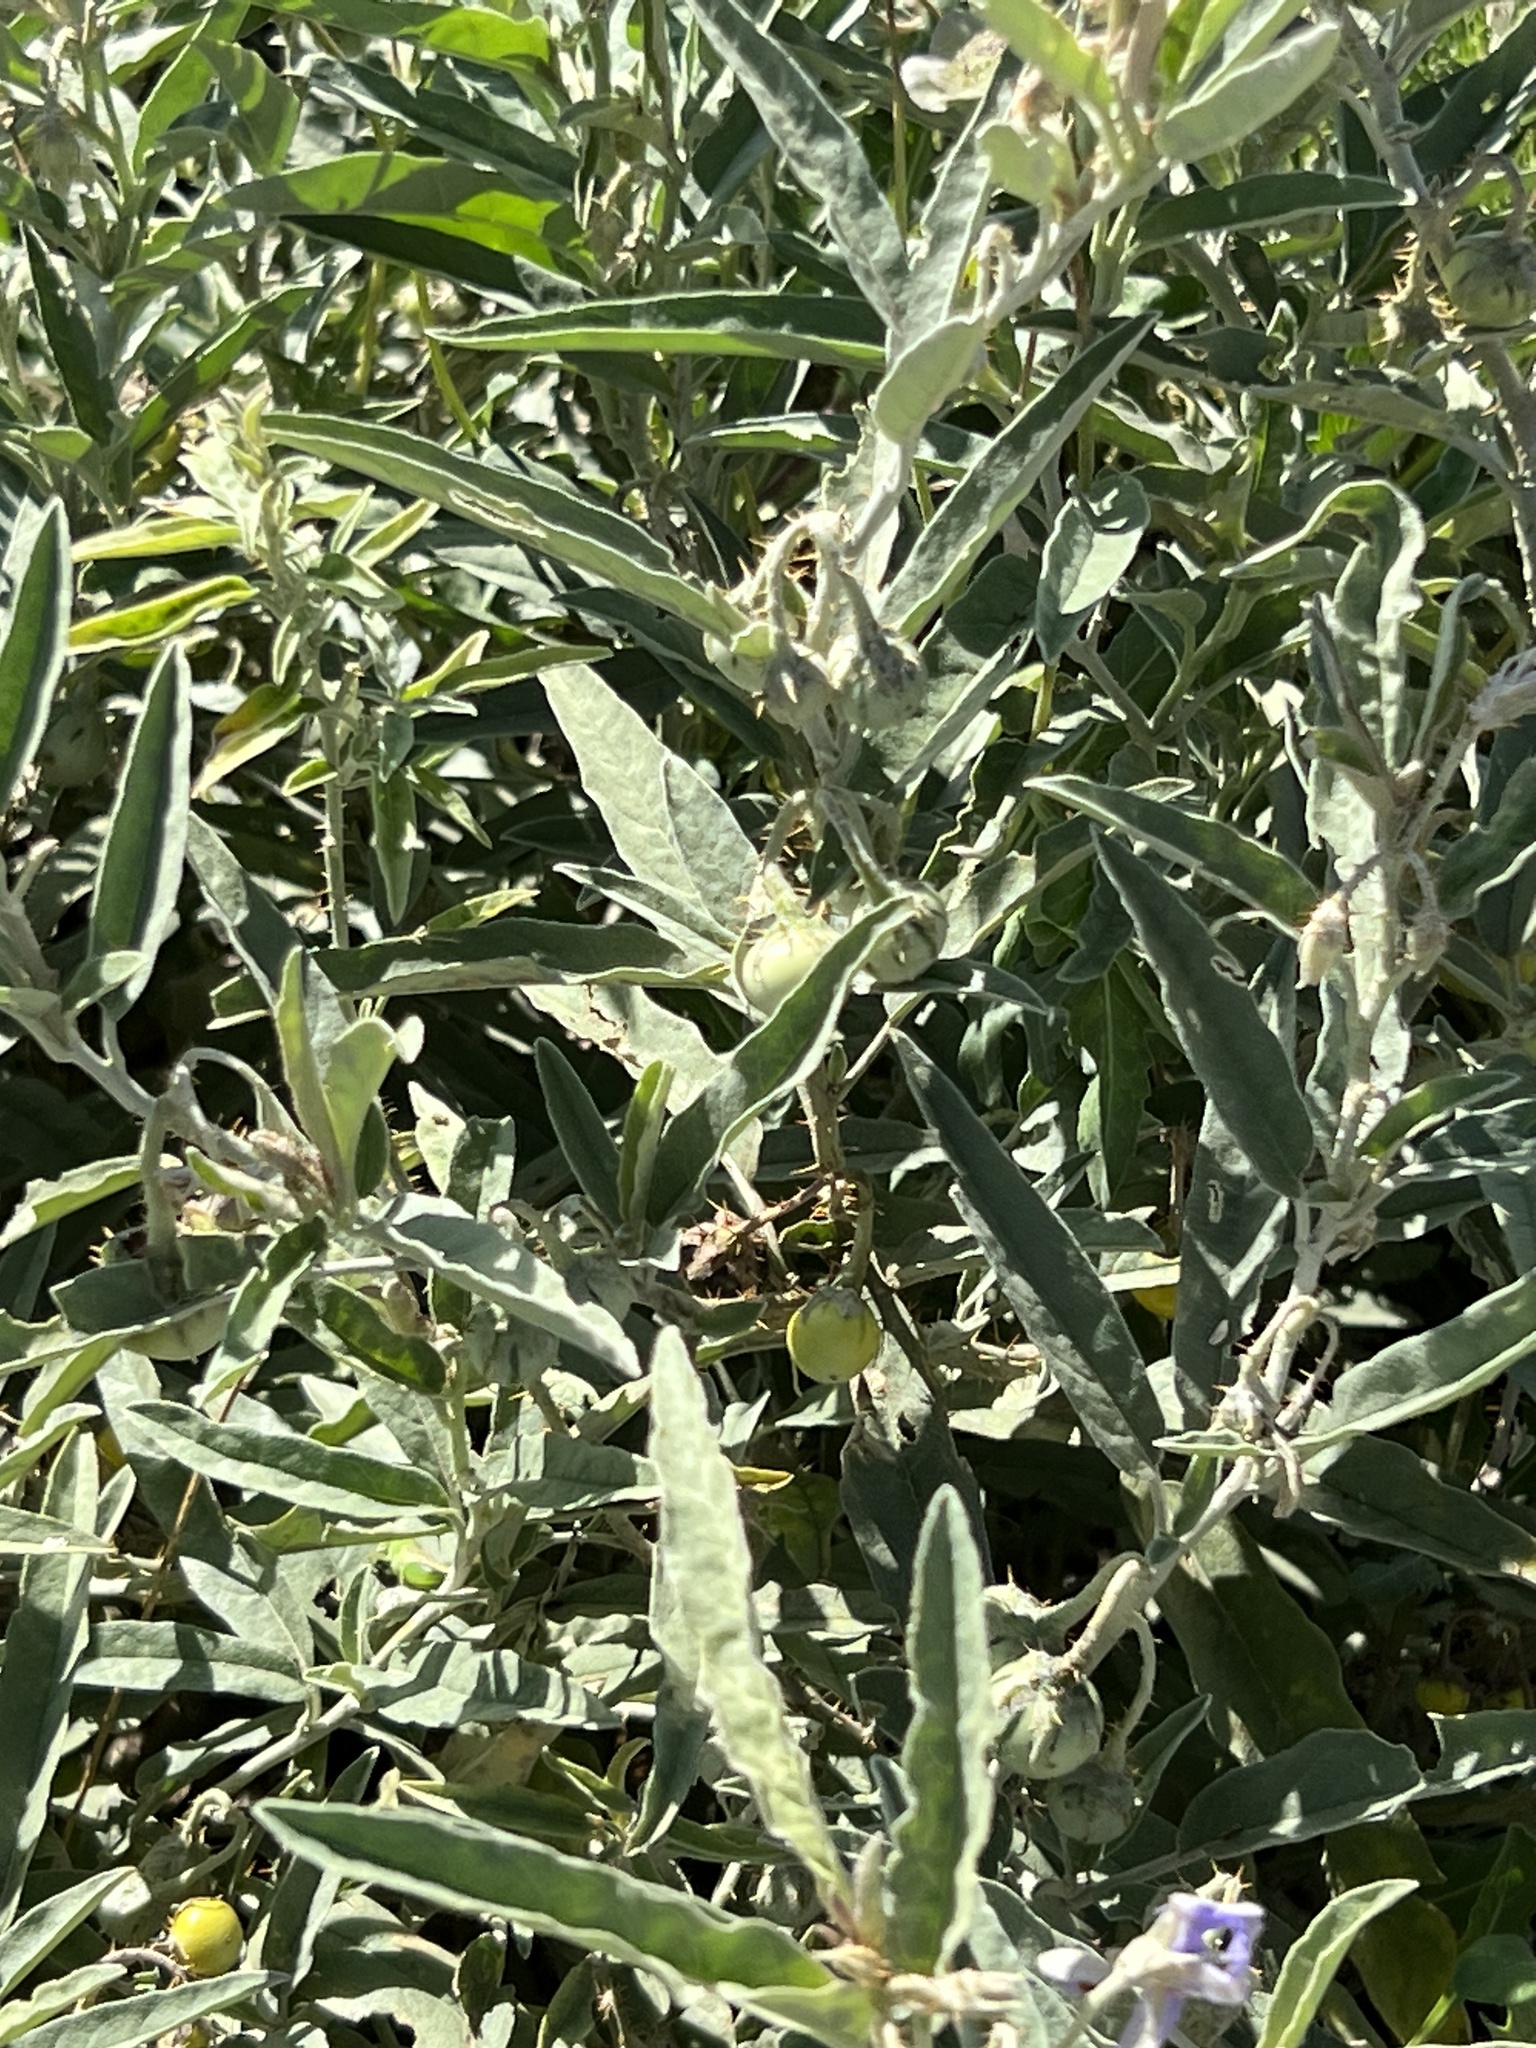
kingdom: Plantae
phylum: Tracheophyta
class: Magnoliopsida
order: Solanales
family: Solanaceae
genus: Solanum
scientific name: Solanum elaeagnifolium
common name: Silverleaf nightshade
